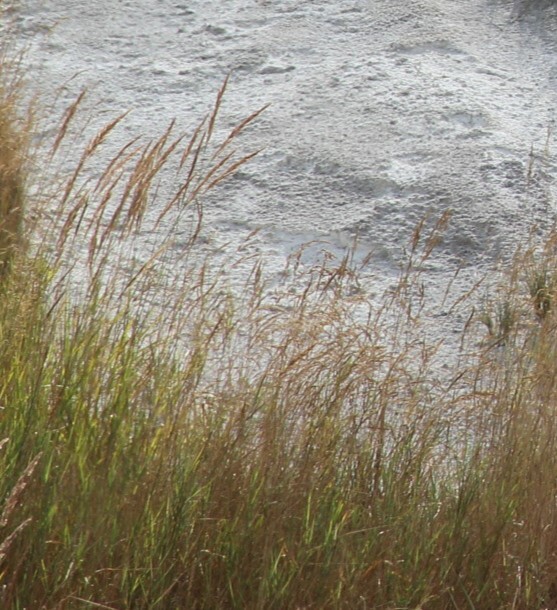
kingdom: Plantae
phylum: Tracheophyta
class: Liliopsida
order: Poales
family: Poaceae
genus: Phalaris
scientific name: Phalaris arundinacea
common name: Reed canary-grass
